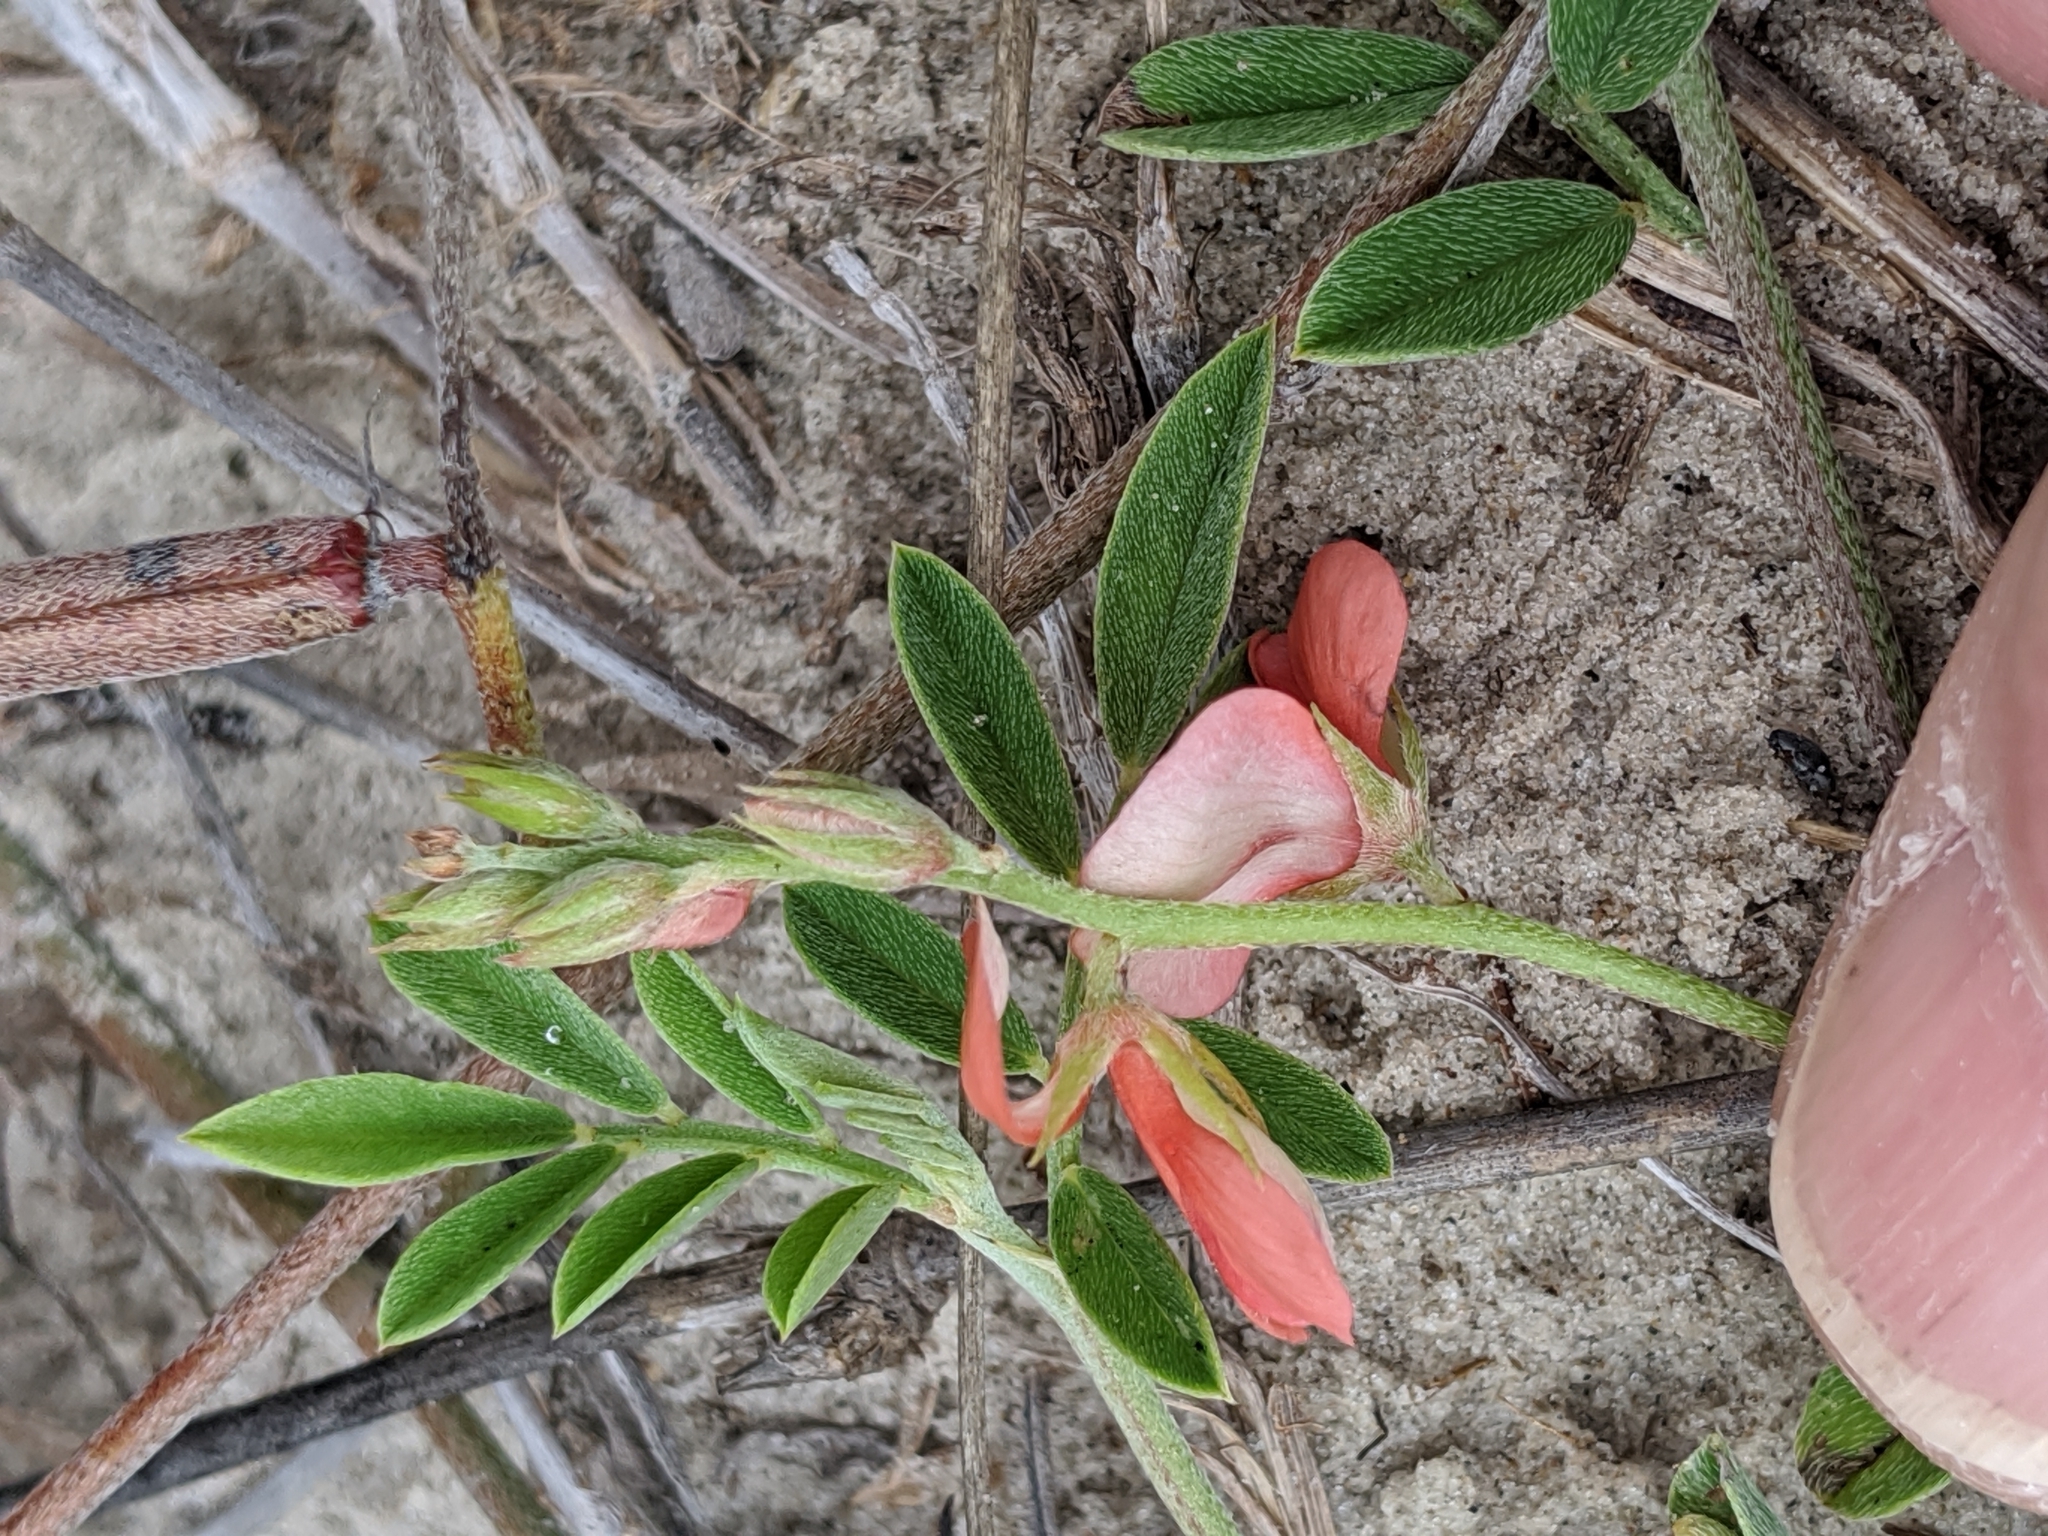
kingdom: Plantae
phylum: Tracheophyta
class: Magnoliopsida
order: Fabales
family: Fabaceae
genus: Indigofera
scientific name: Indigofera miniata
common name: Coast indigo
